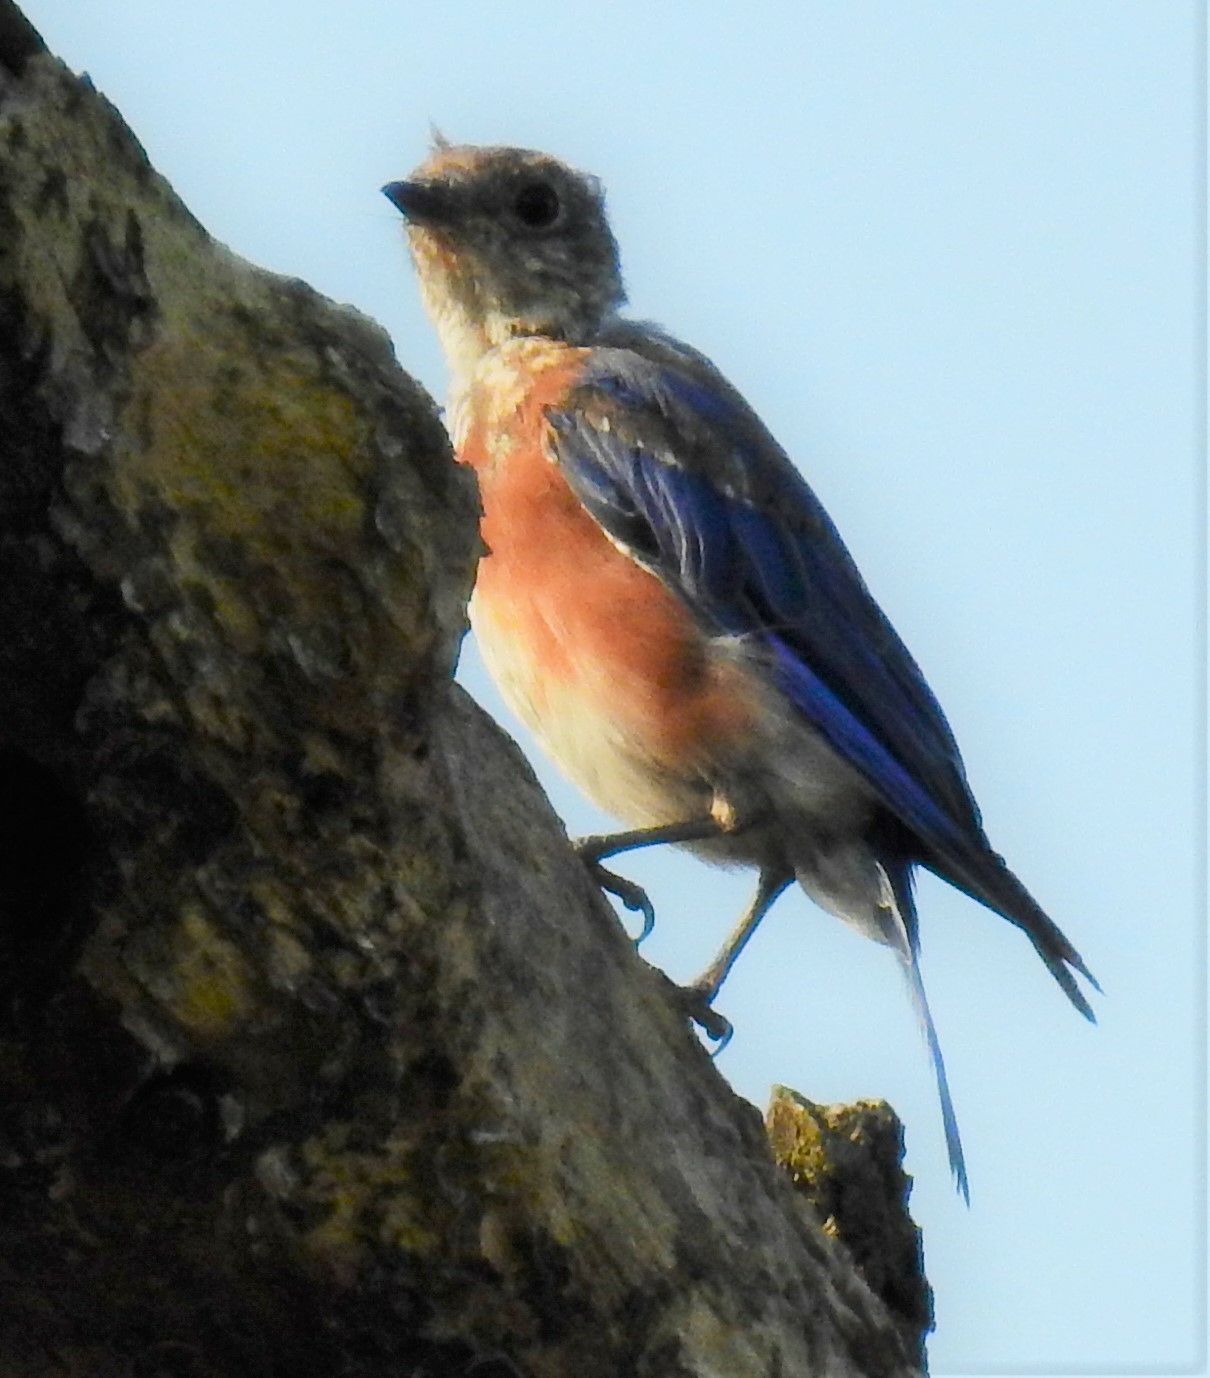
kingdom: Animalia
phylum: Chordata
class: Aves
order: Passeriformes
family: Turdidae
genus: Sialia
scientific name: Sialia sialis
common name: Eastern bluebird
